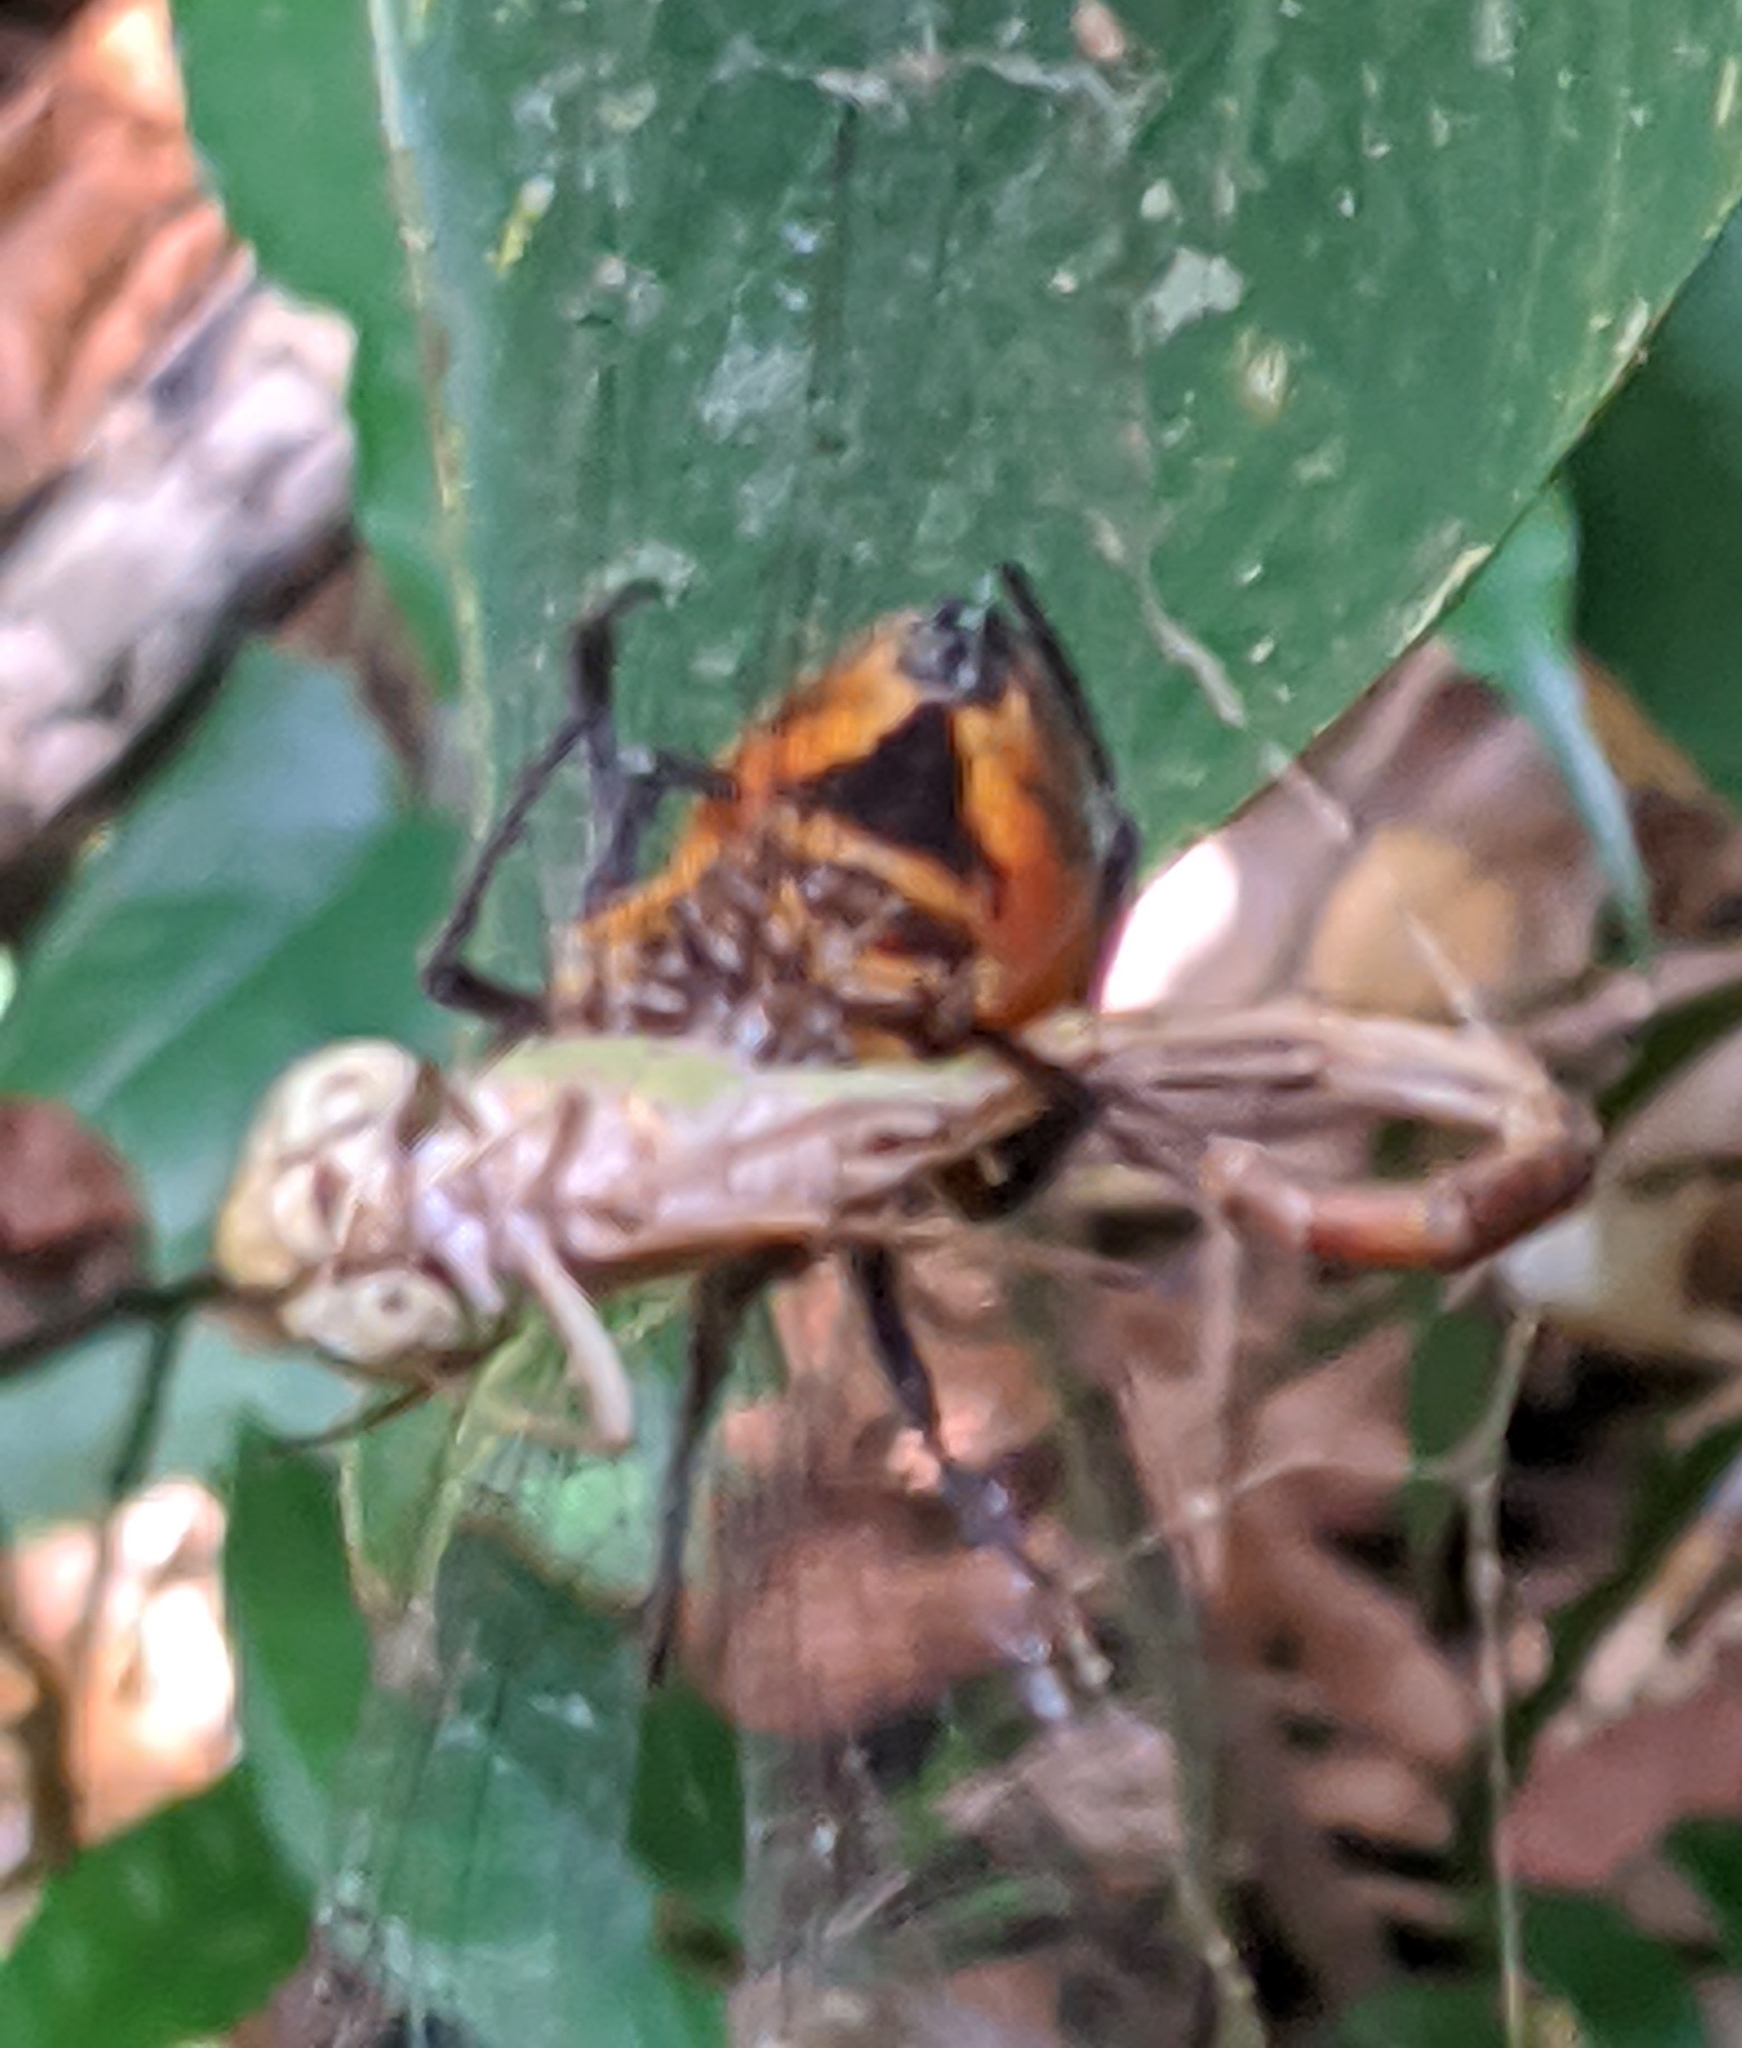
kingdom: Animalia
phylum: Arthropoda
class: Arachnida
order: Araneae
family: Araneidae
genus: Eriophora
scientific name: Eriophora fuliginea
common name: Orb weavers
